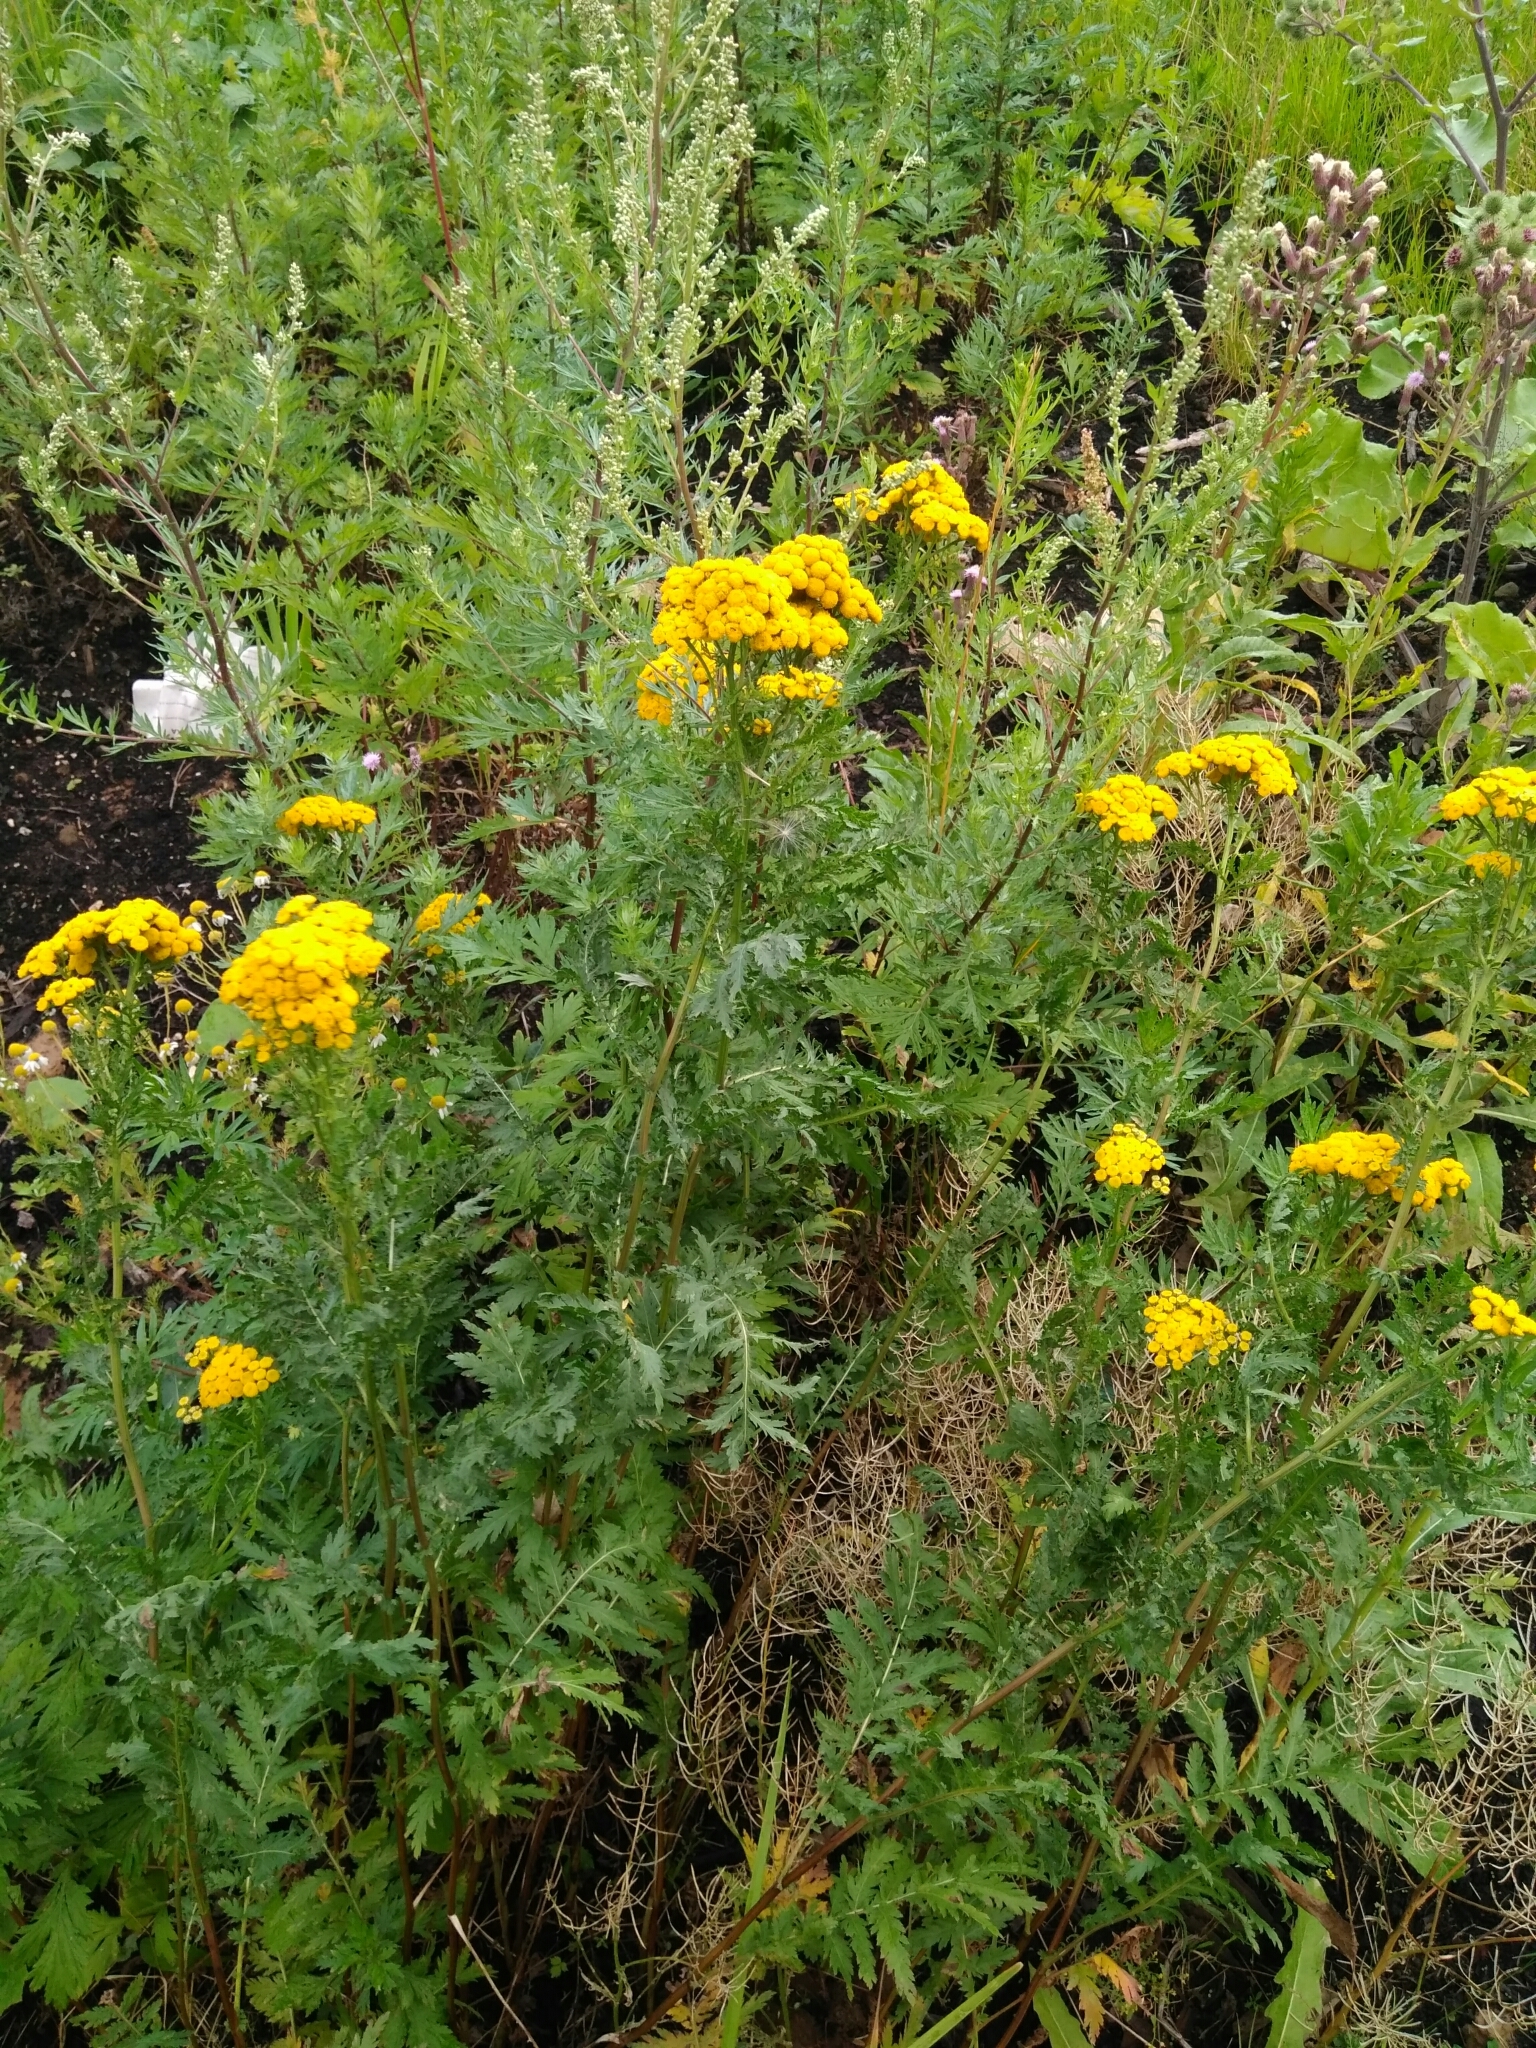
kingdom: Plantae
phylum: Tracheophyta
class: Magnoliopsida
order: Asterales
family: Asteraceae
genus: Tanacetum
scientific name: Tanacetum vulgare
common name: Common tansy
